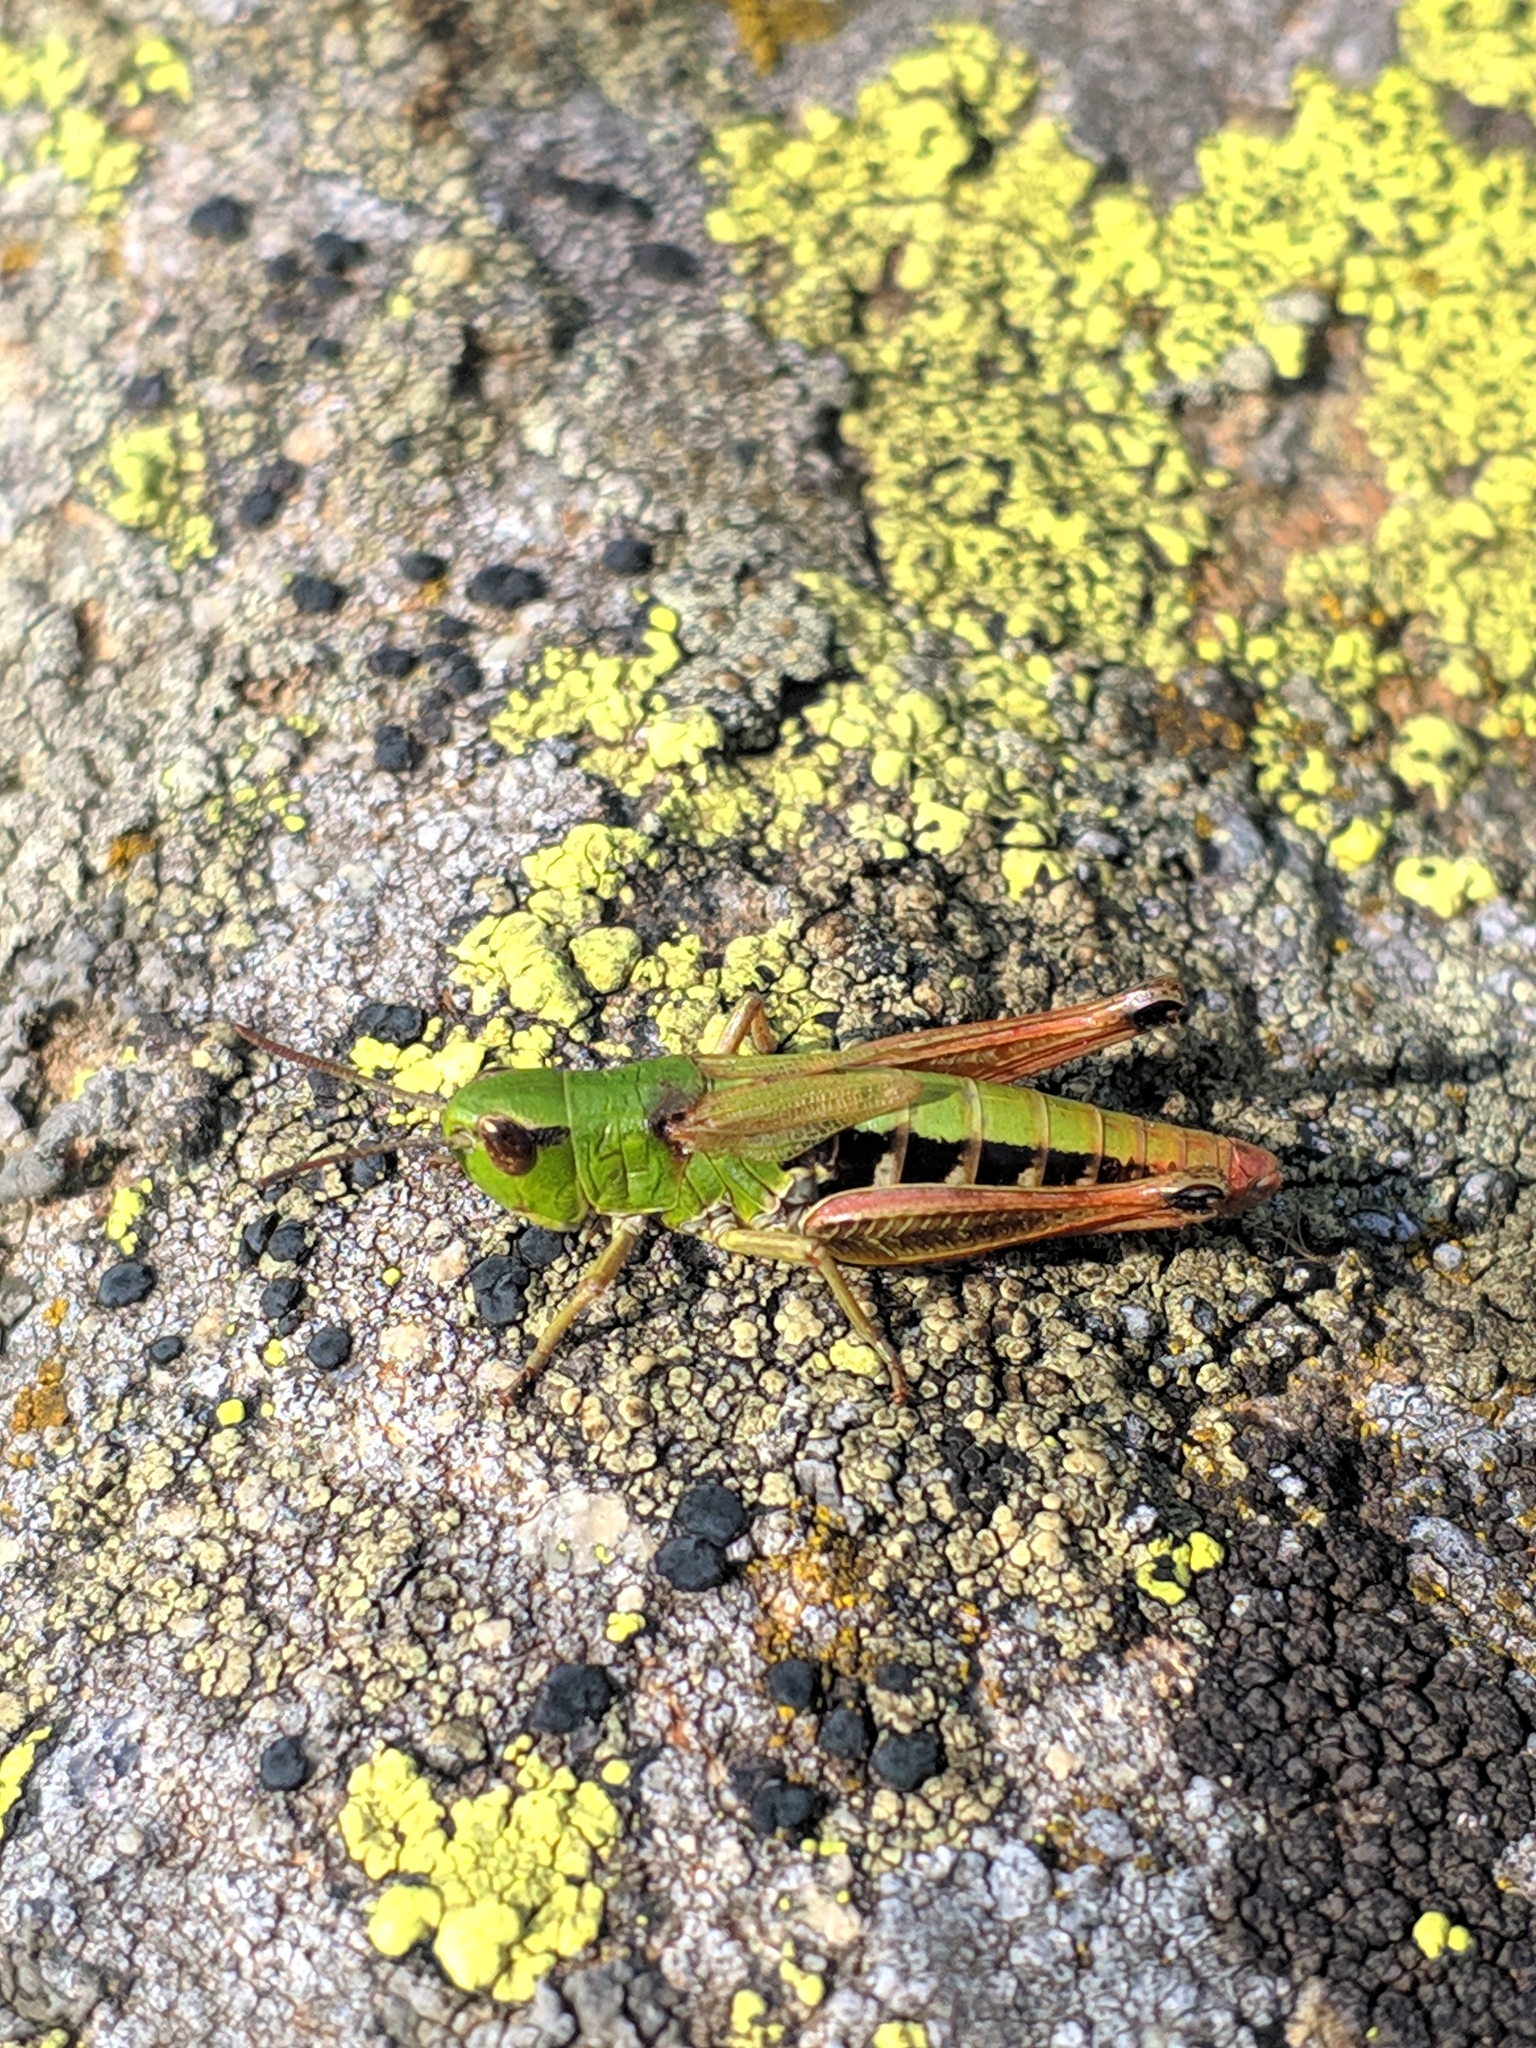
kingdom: Animalia
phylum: Arthropoda
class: Insecta
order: Orthoptera
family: Acrididae
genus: Pseudochorthippus
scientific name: Pseudochorthippus parallelus
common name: Meadow grasshopper
